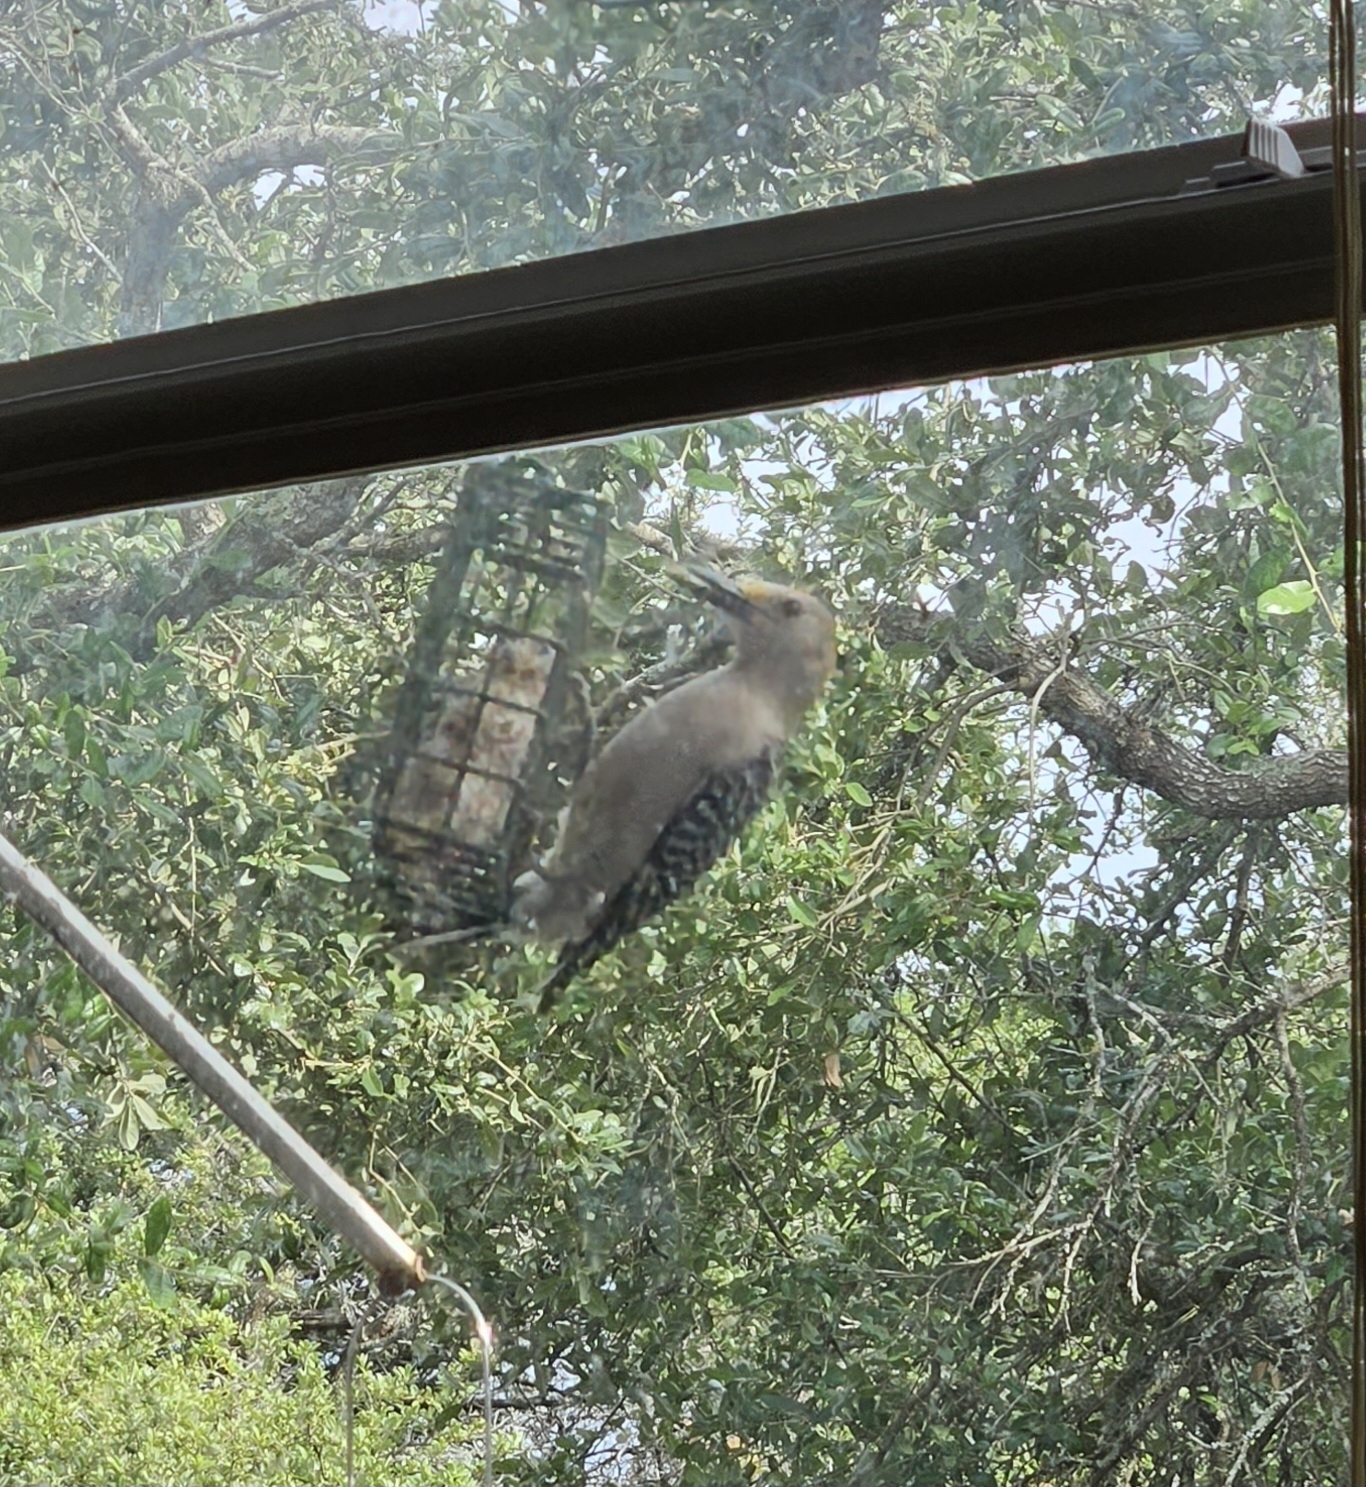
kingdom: Animalia
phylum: Chordata
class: Aves
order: Piciformes
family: Picidae
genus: Melanerpes
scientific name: Melanerpes aurifrons
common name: Golden-fronted woodpecker
